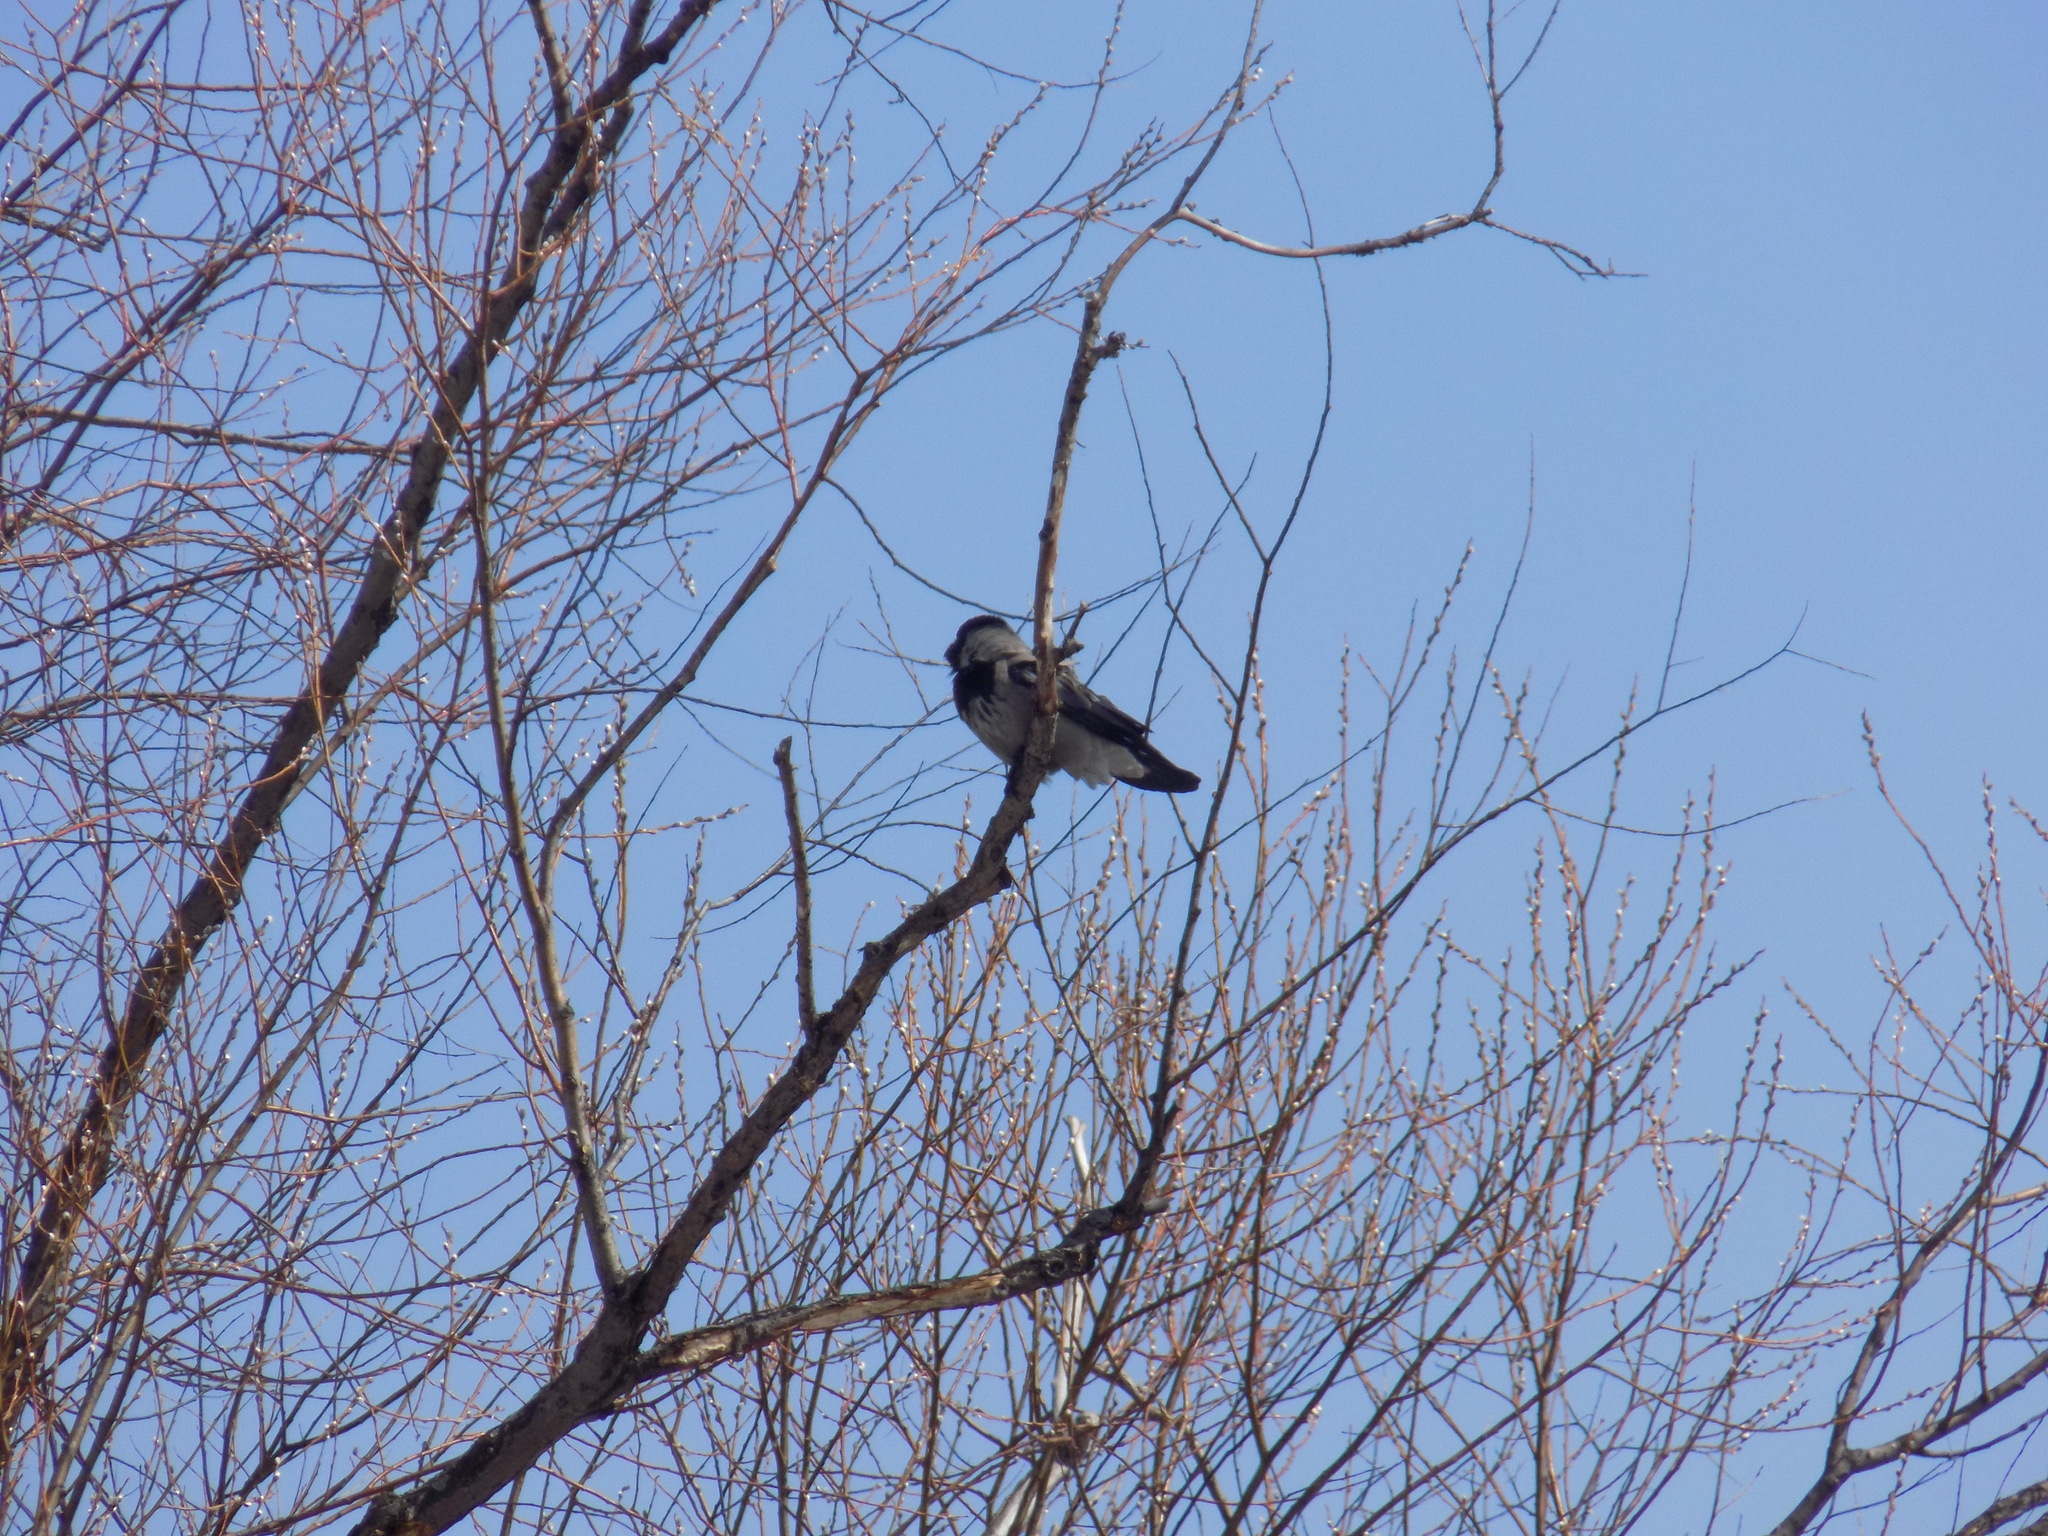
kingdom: Animalia
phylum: Chordata
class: Aves
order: Passeriformes
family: Corvidae
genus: Corvus
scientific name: Corvus cornix
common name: Hooded crow
